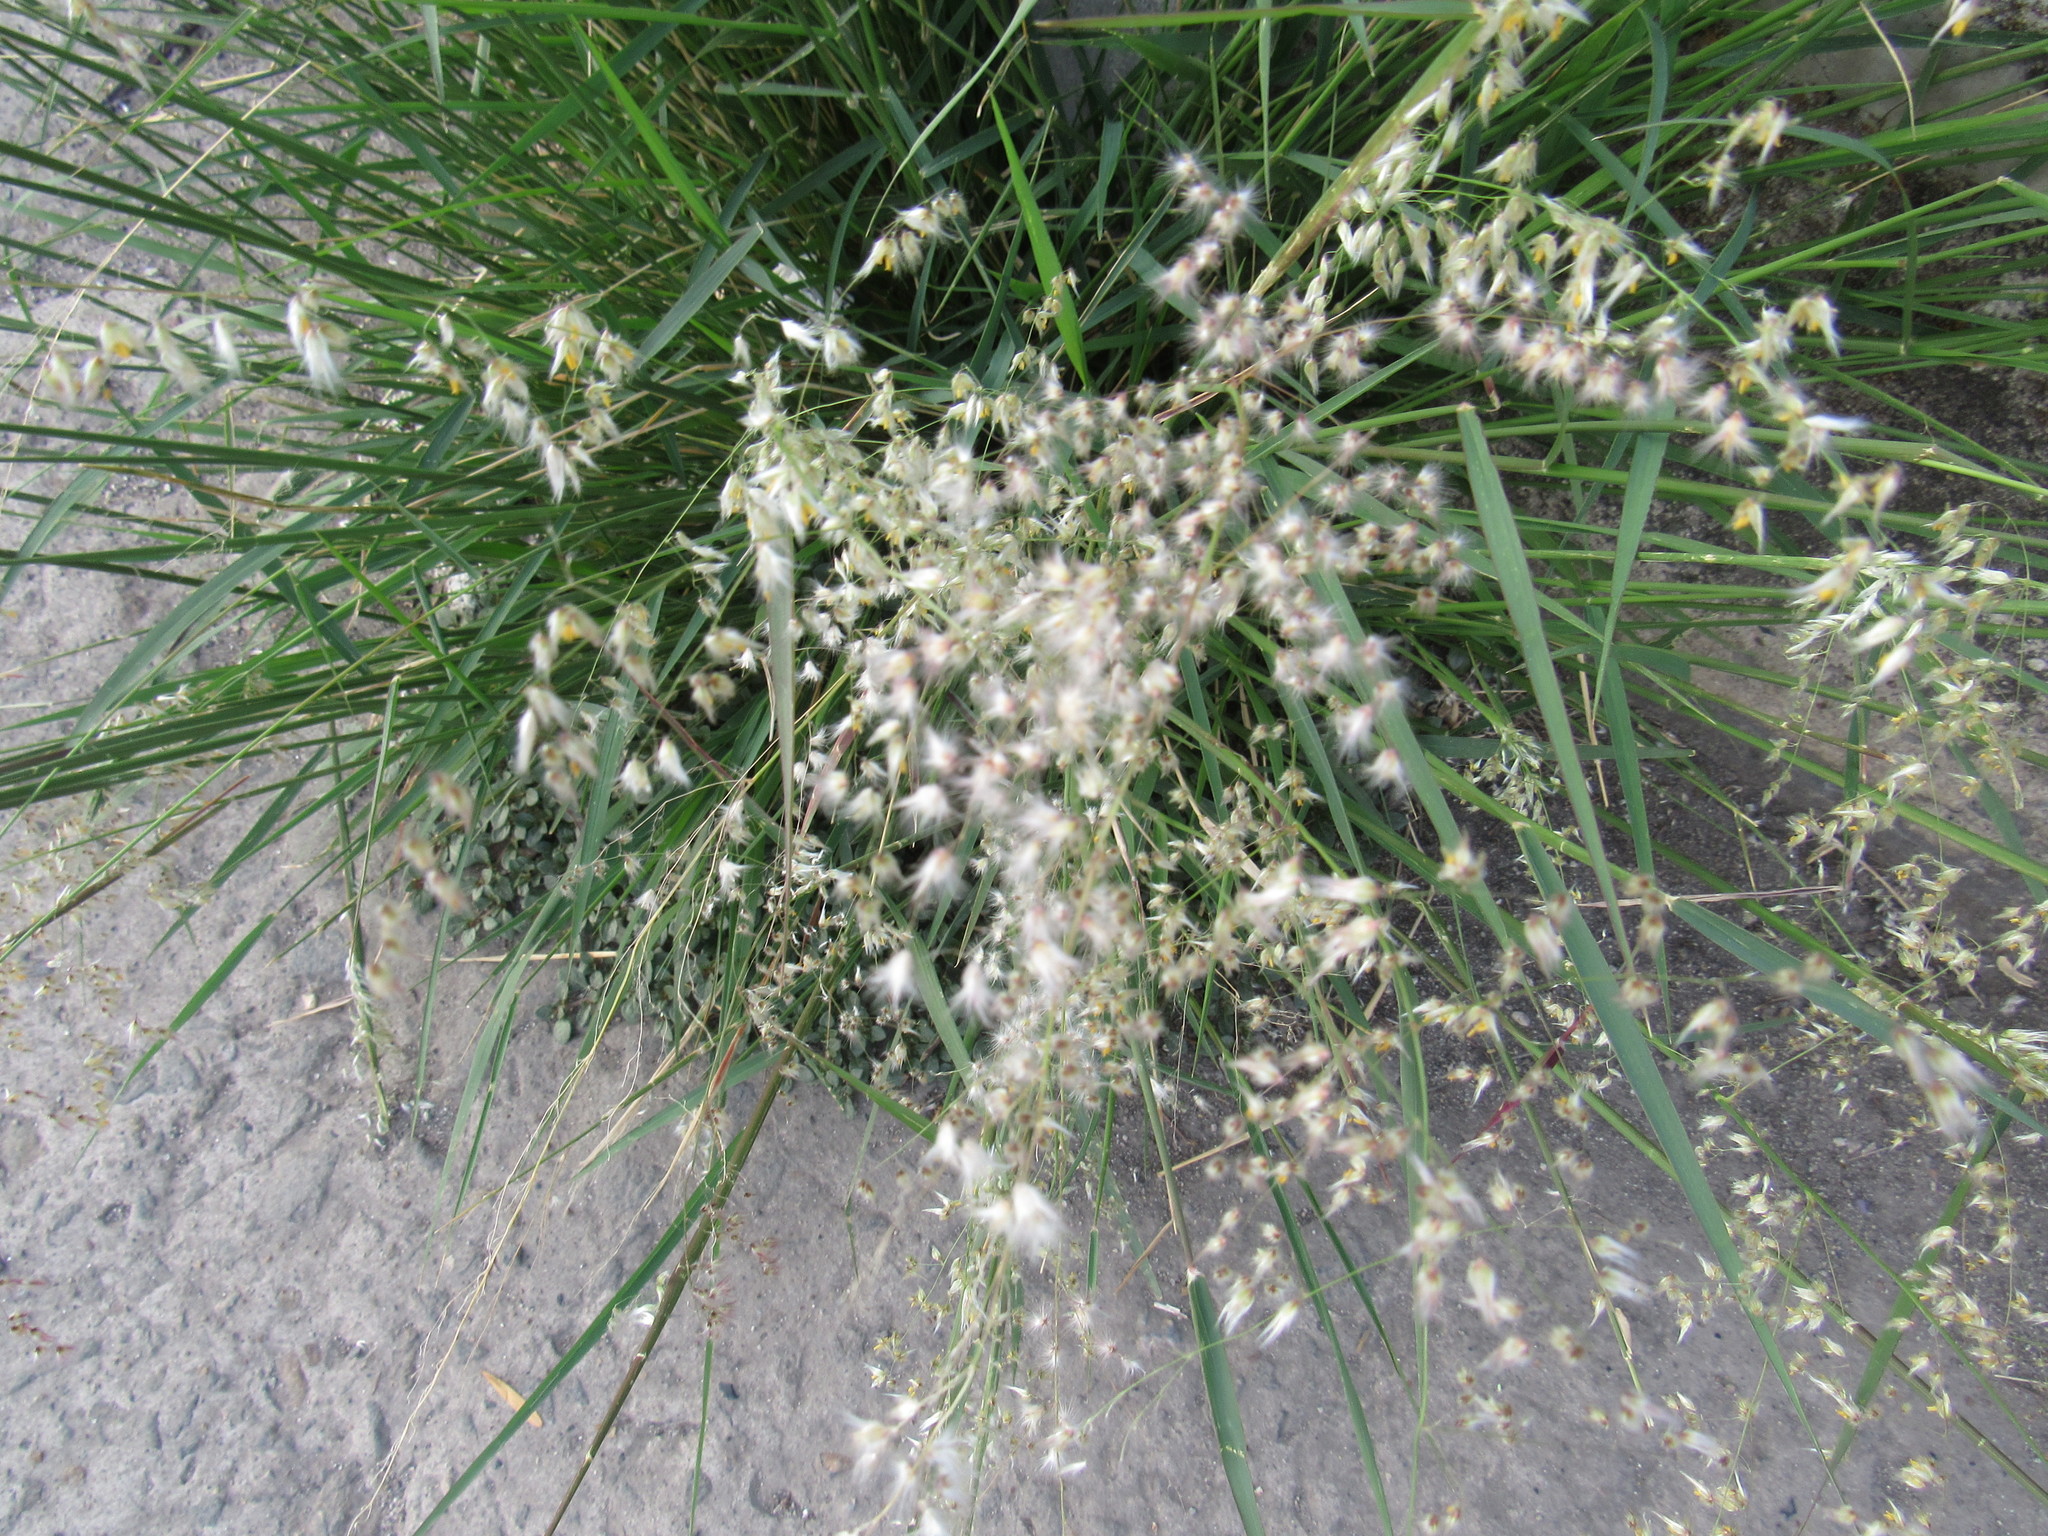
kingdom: Plantae
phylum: Tracheophyta
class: Liliopsida
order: Poales
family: Poaceae
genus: Melinis
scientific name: Melinis repens
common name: Rose natal grass
